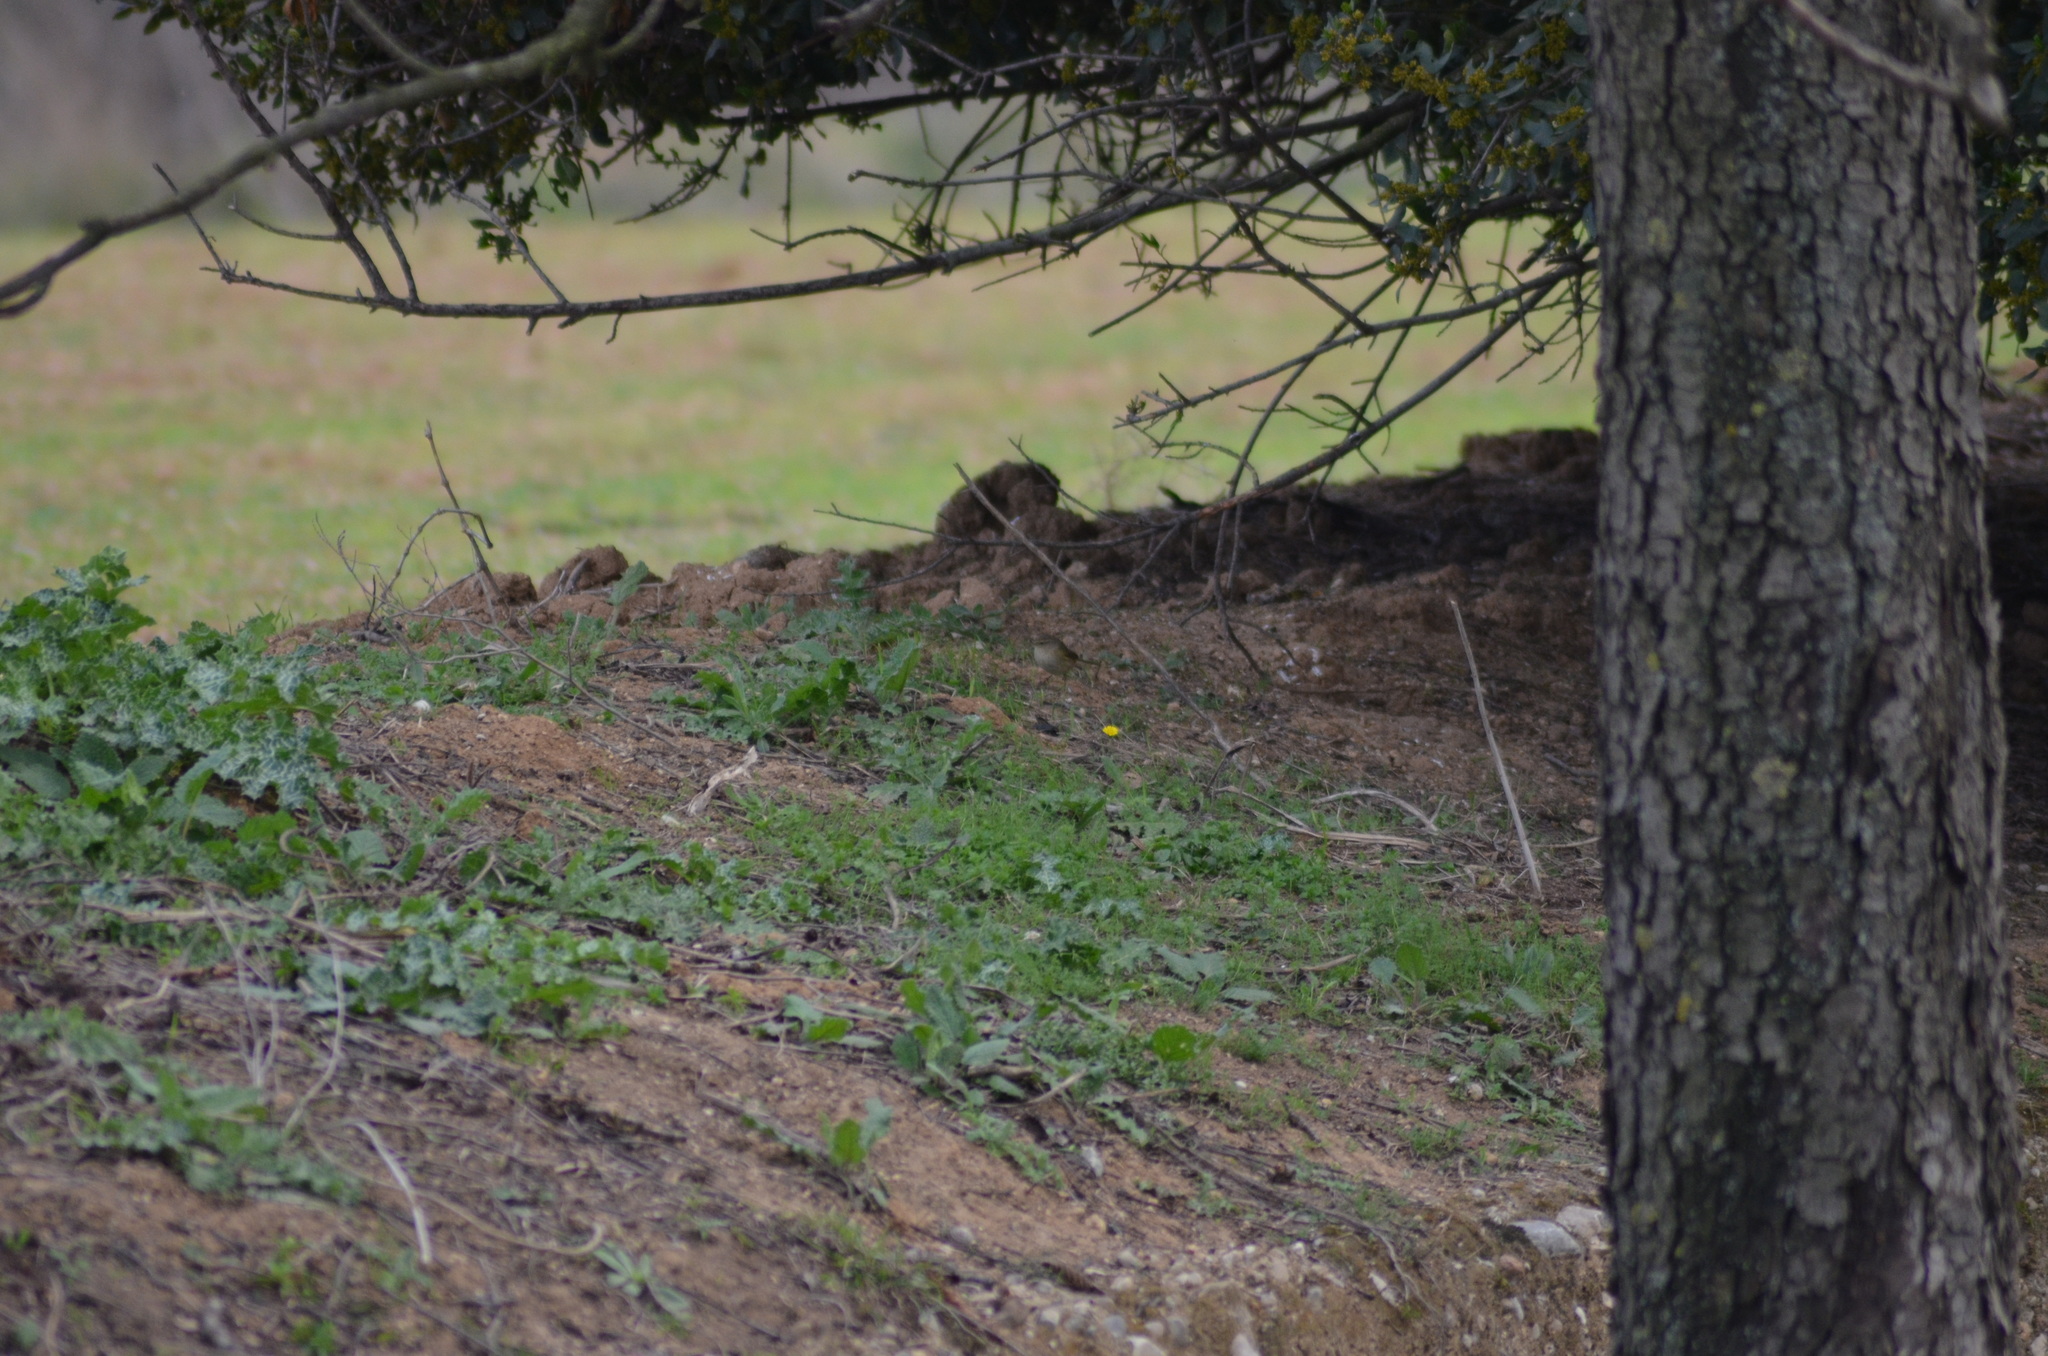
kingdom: Animalia
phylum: Chordata
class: Aves
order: Passeriformes
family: Phylloscopidae
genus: Phylloscopus
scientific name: Phylloscopus collybita
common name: Common chiffchaff
